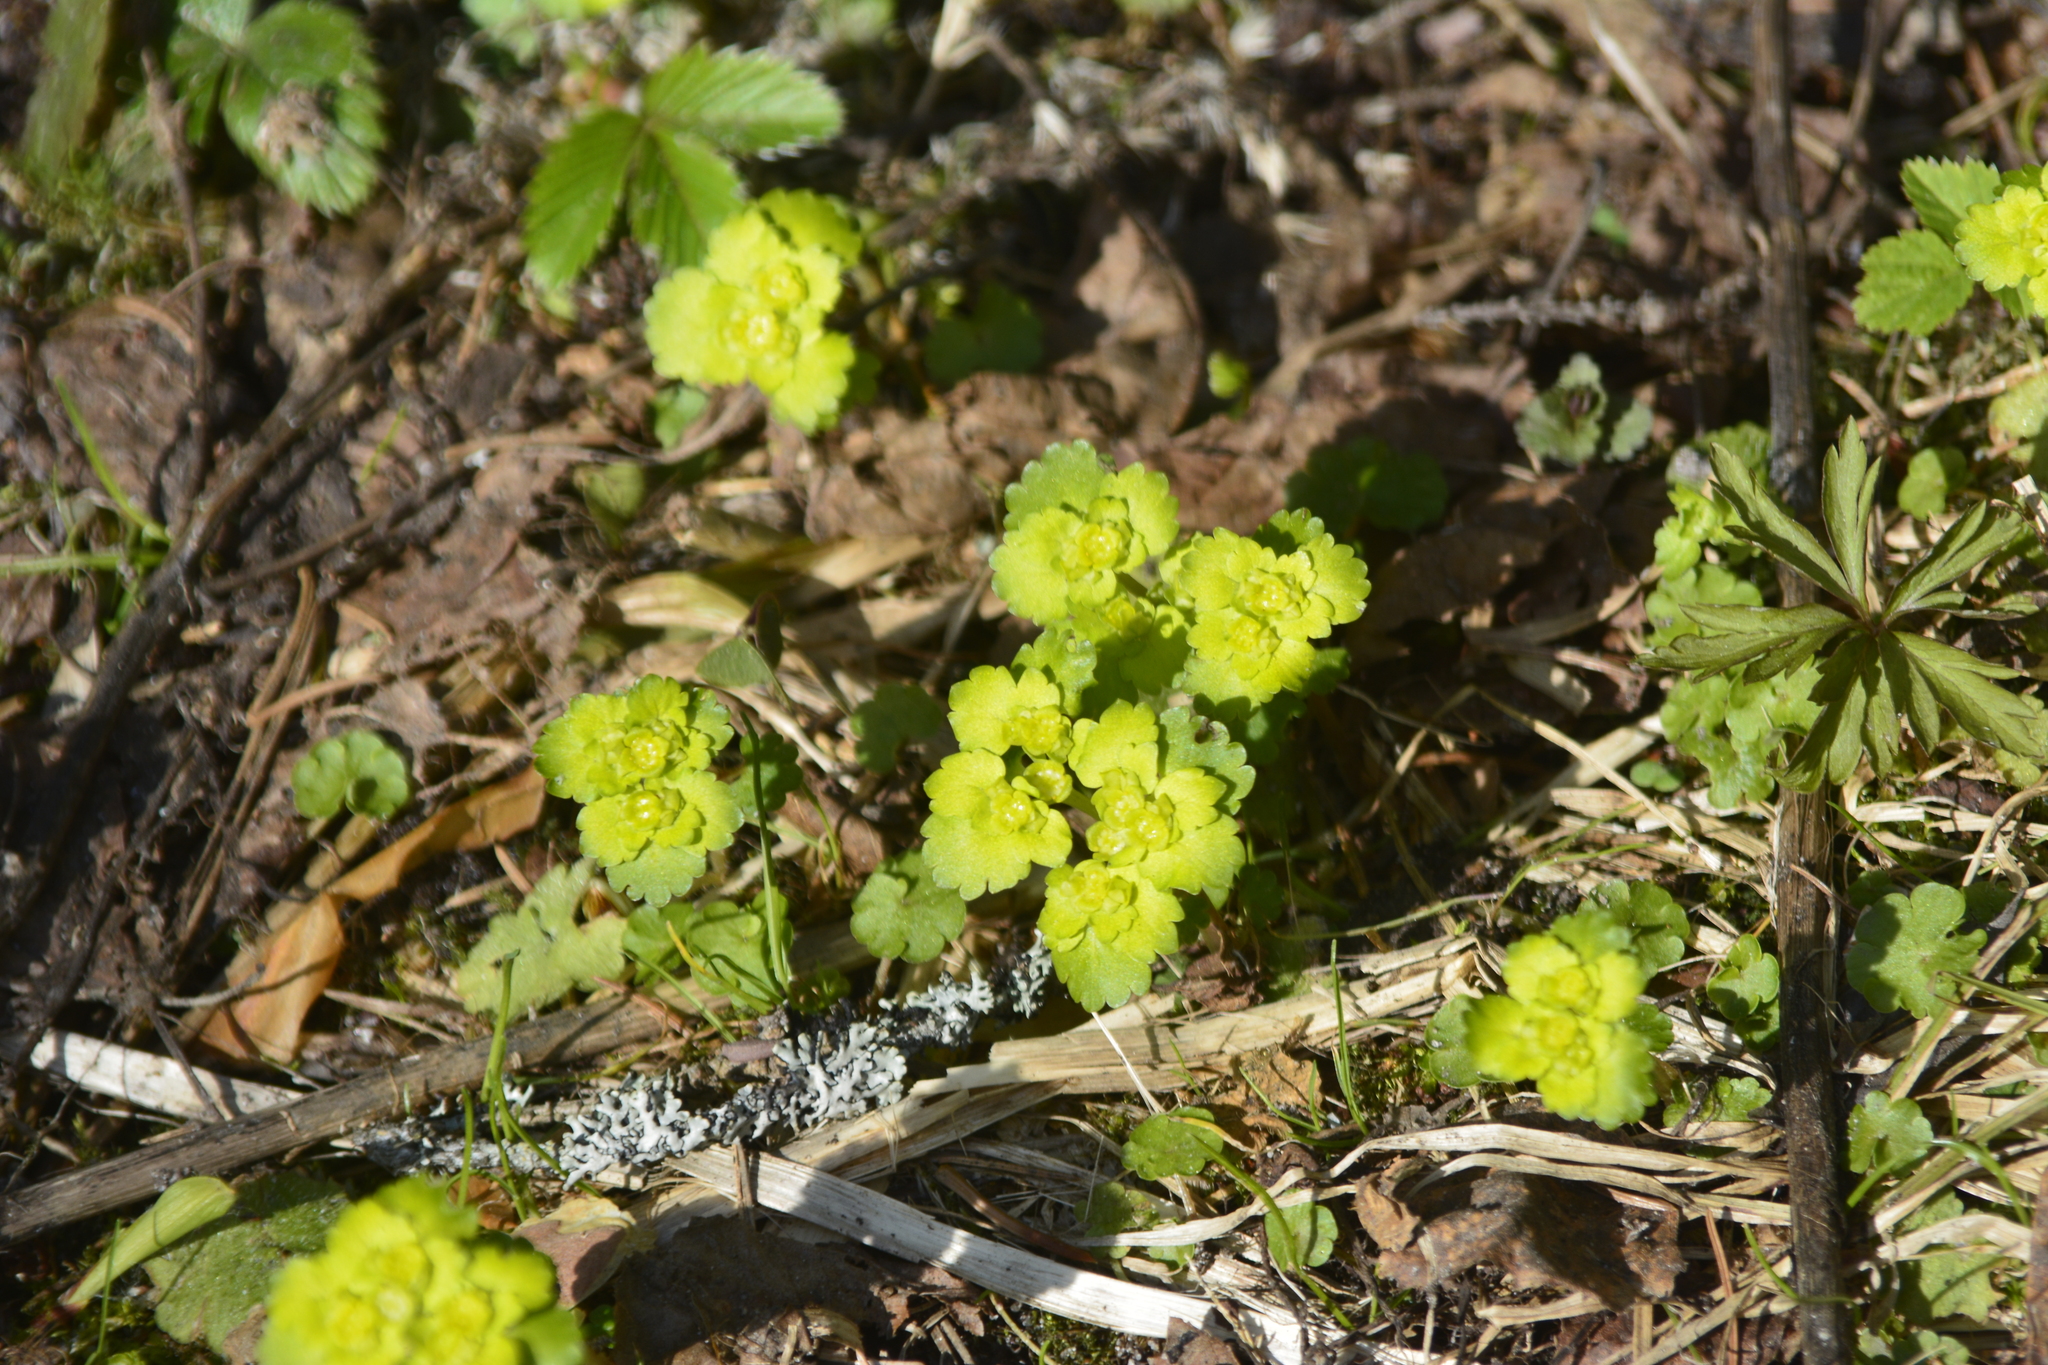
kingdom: Plantae
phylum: Tracheophyta
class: Magnoliopsida
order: Saxifragales
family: Saxifragaceae
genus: Chrysosplenium
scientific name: Chrysosplenium alternifolium
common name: Alternate-leaved golden-saxifrage
